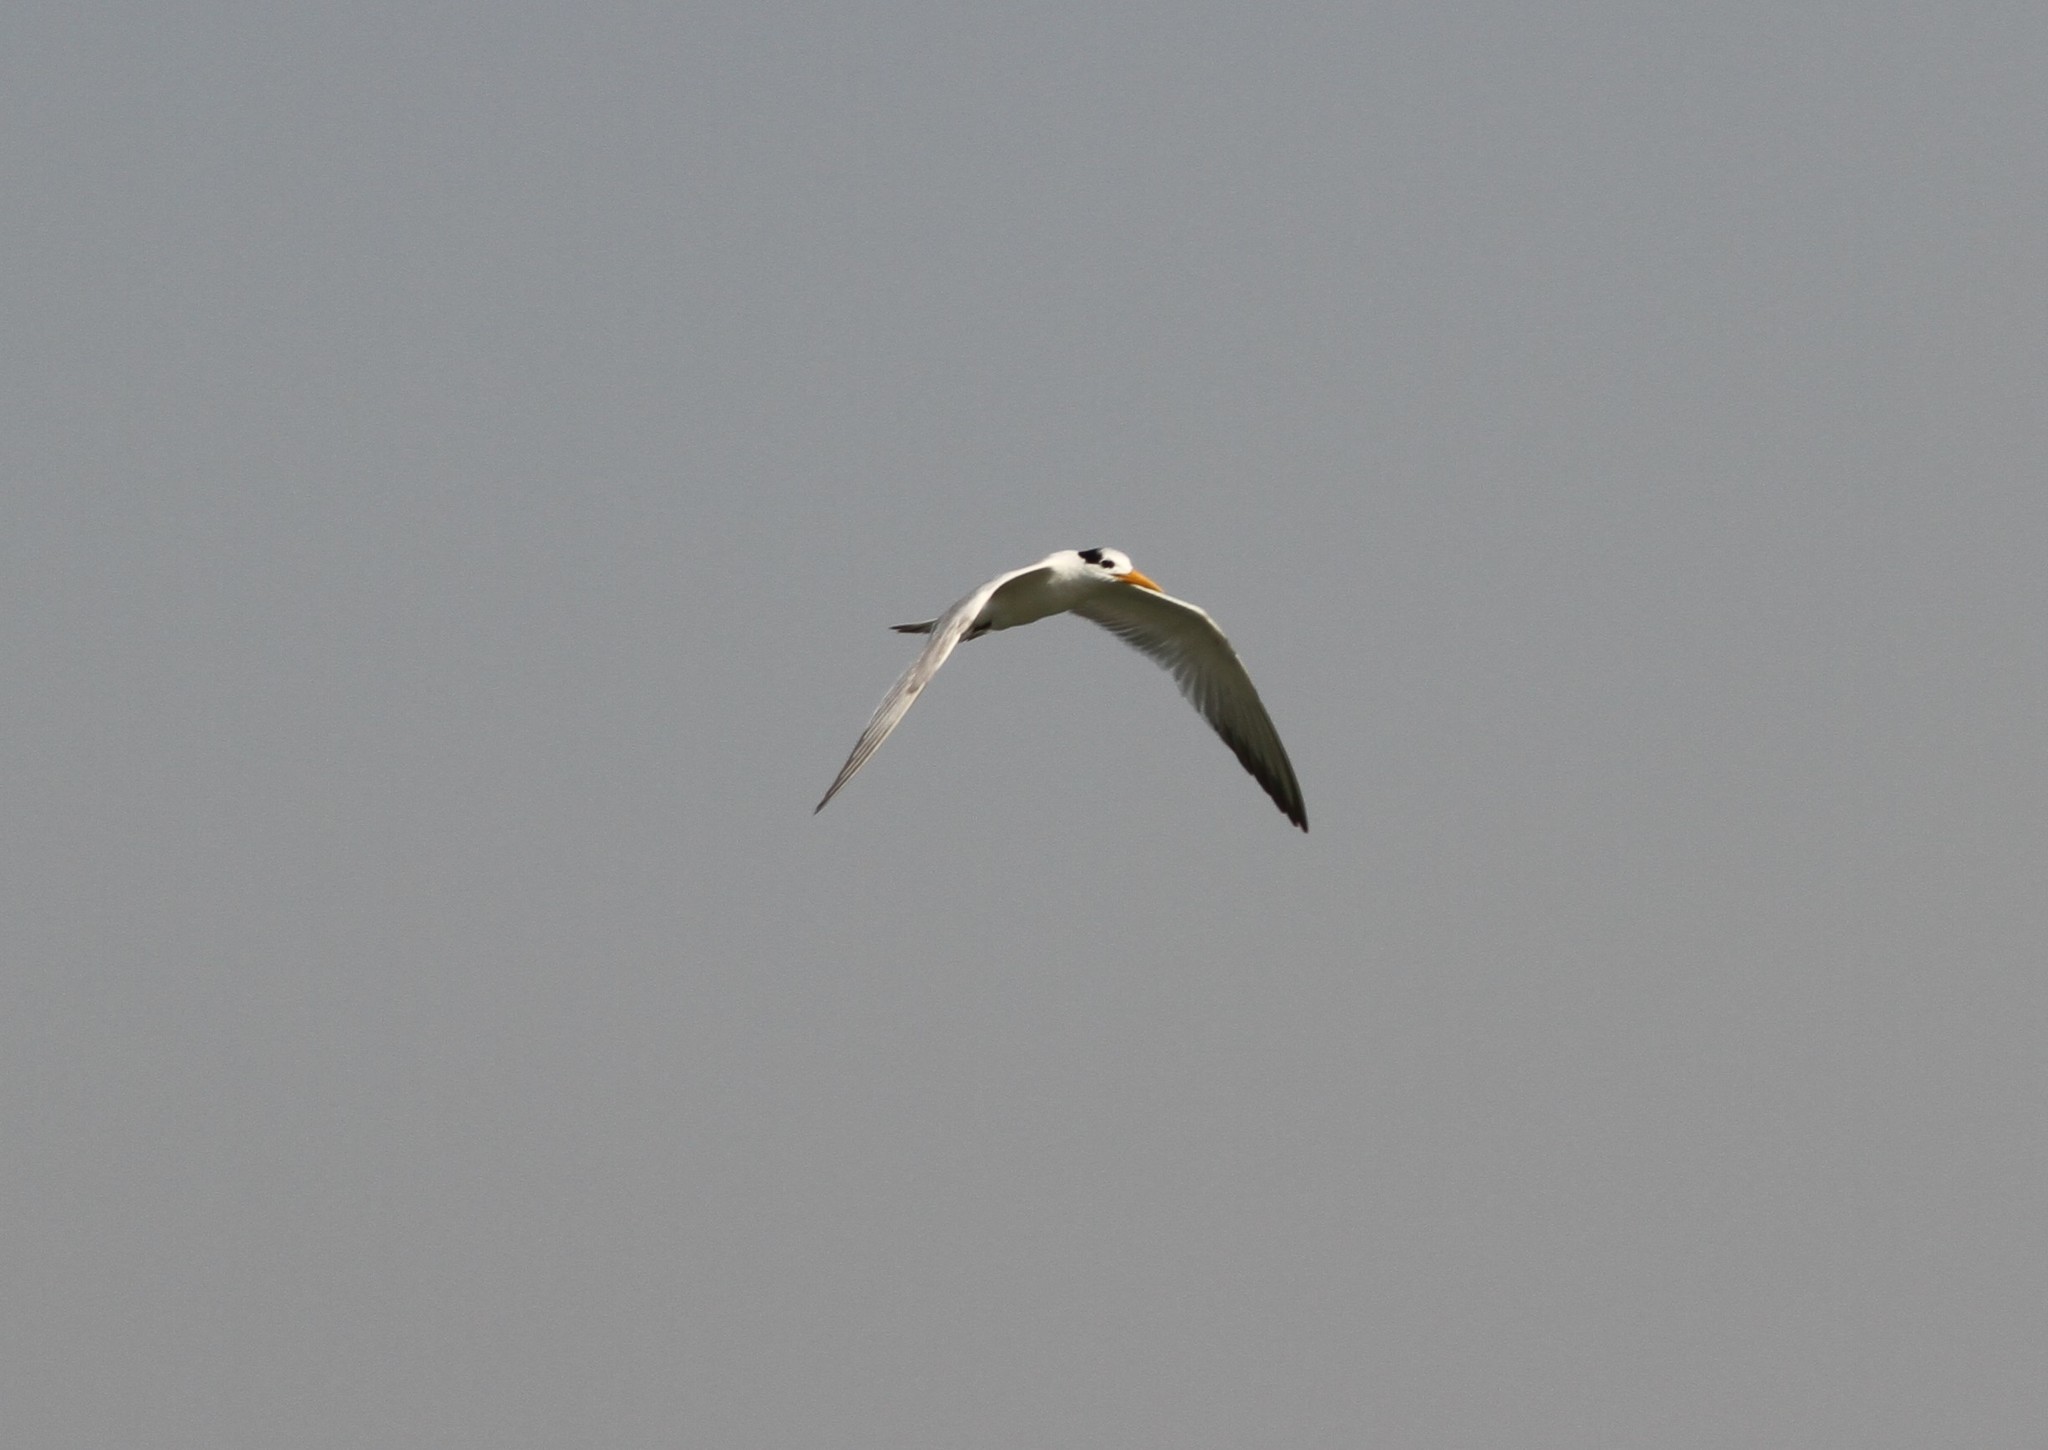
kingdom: Animalia
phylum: Chordata
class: Aves
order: Charadriiformes
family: Laridae
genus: Thalasseus
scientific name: Thalasseus albididorsalis
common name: West african crested tern
